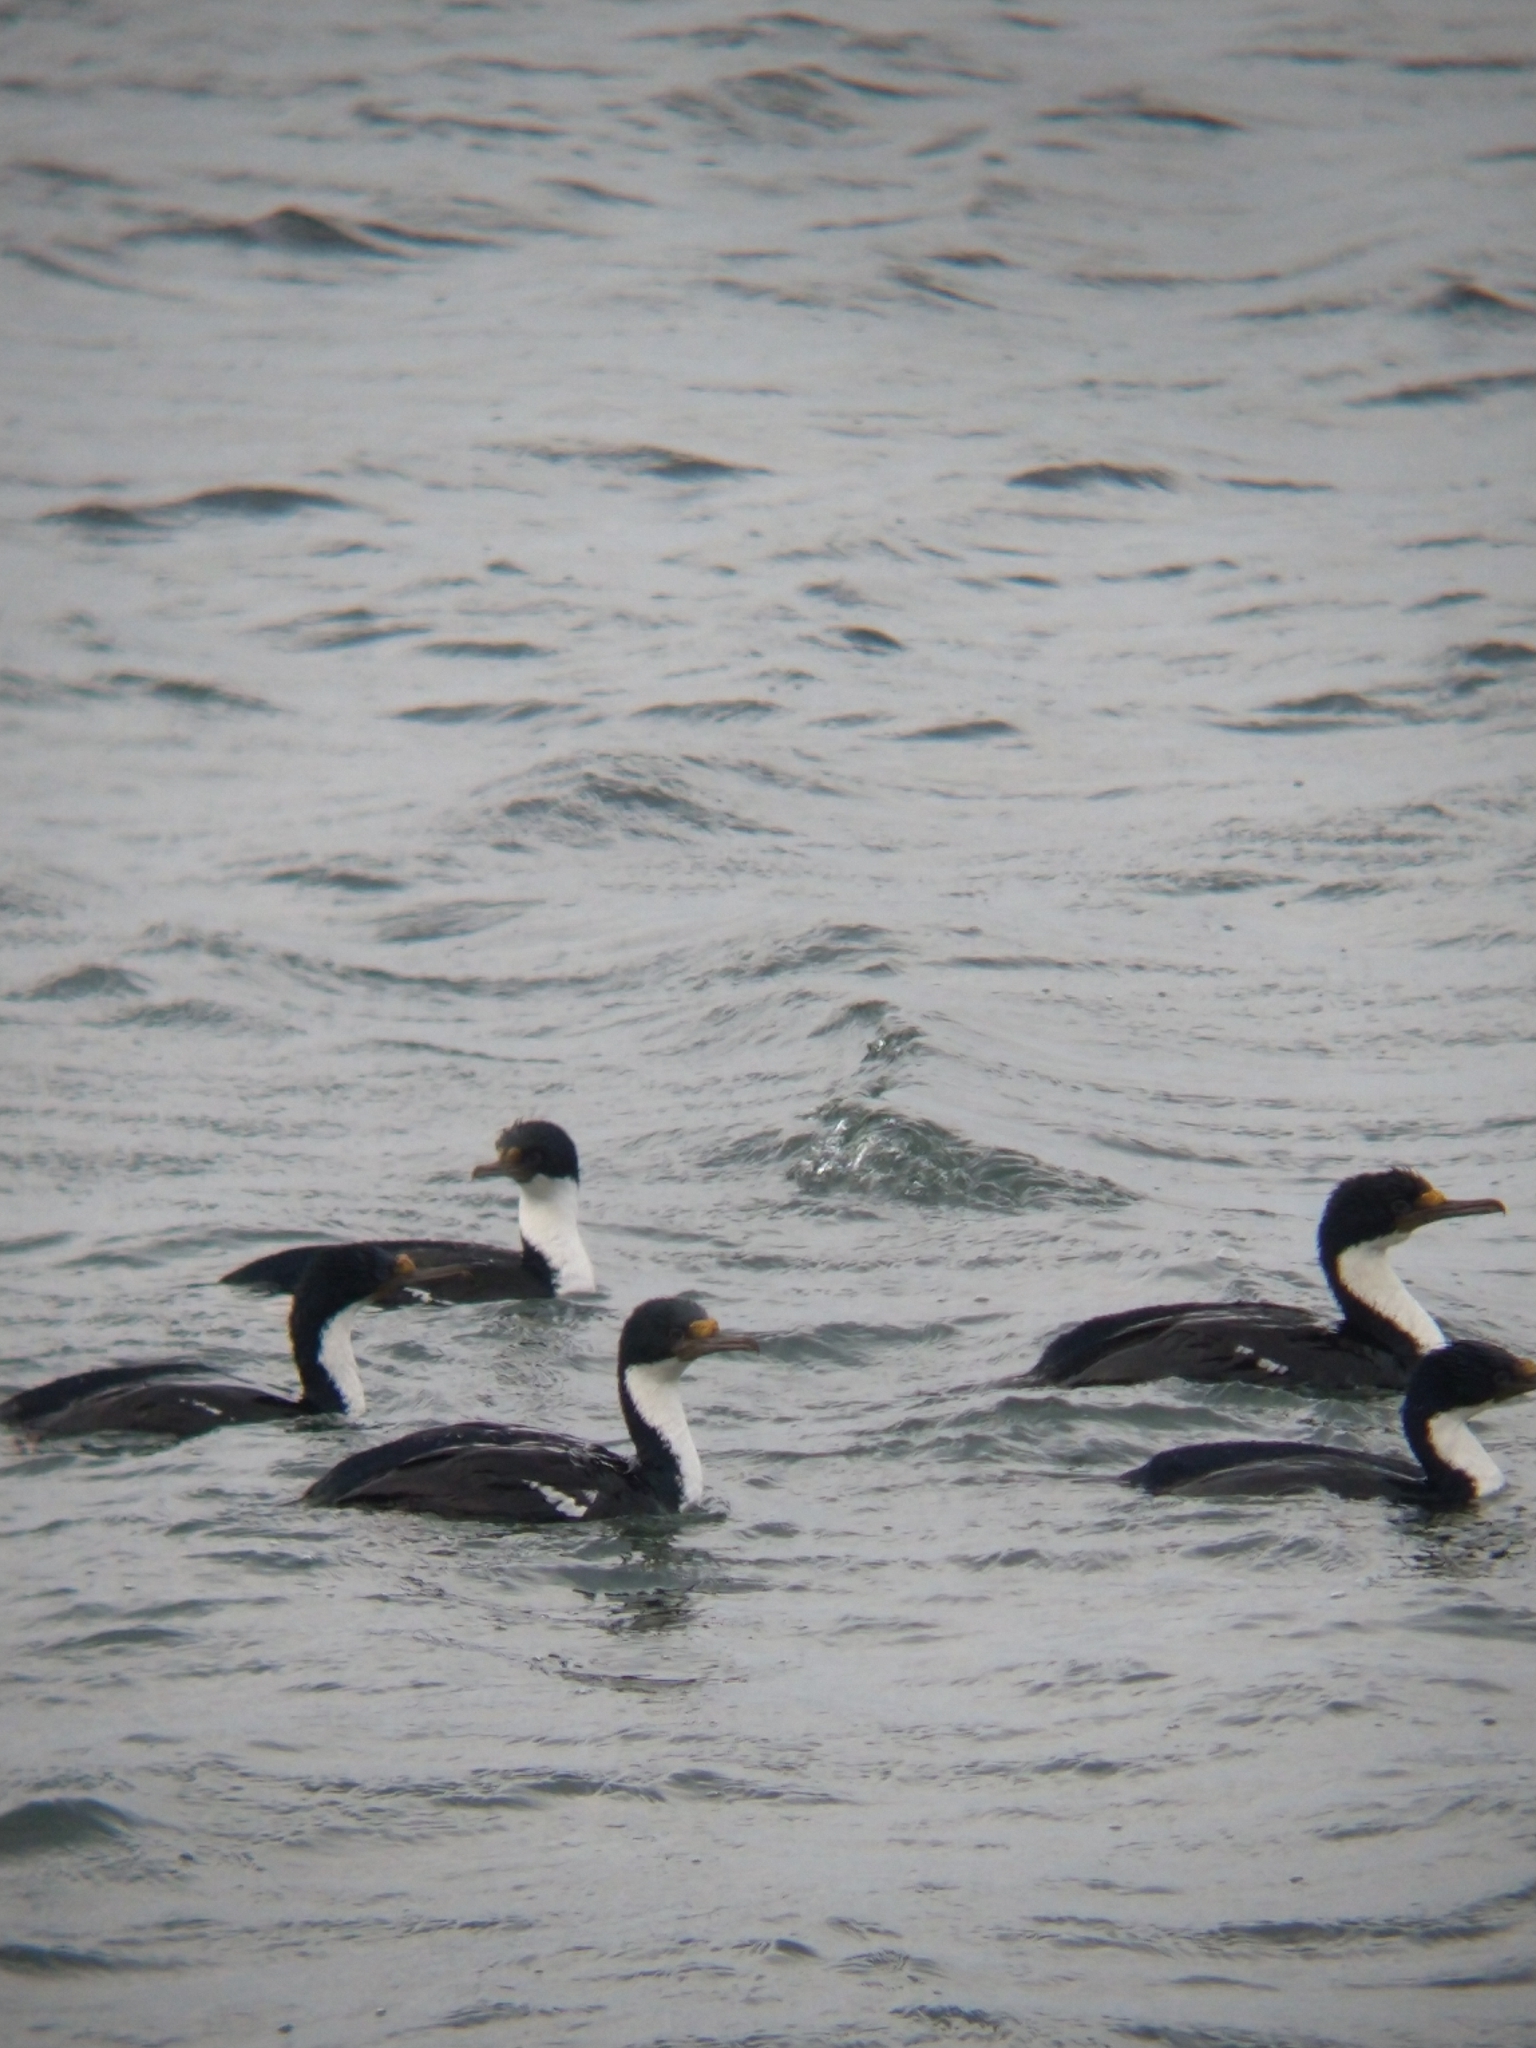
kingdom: Animalia
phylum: Chordata
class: Aves
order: Suliformes
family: Phalacrocoracidae
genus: Leucocarbo
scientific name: Leucocarbo atriceps
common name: Imperial shag
